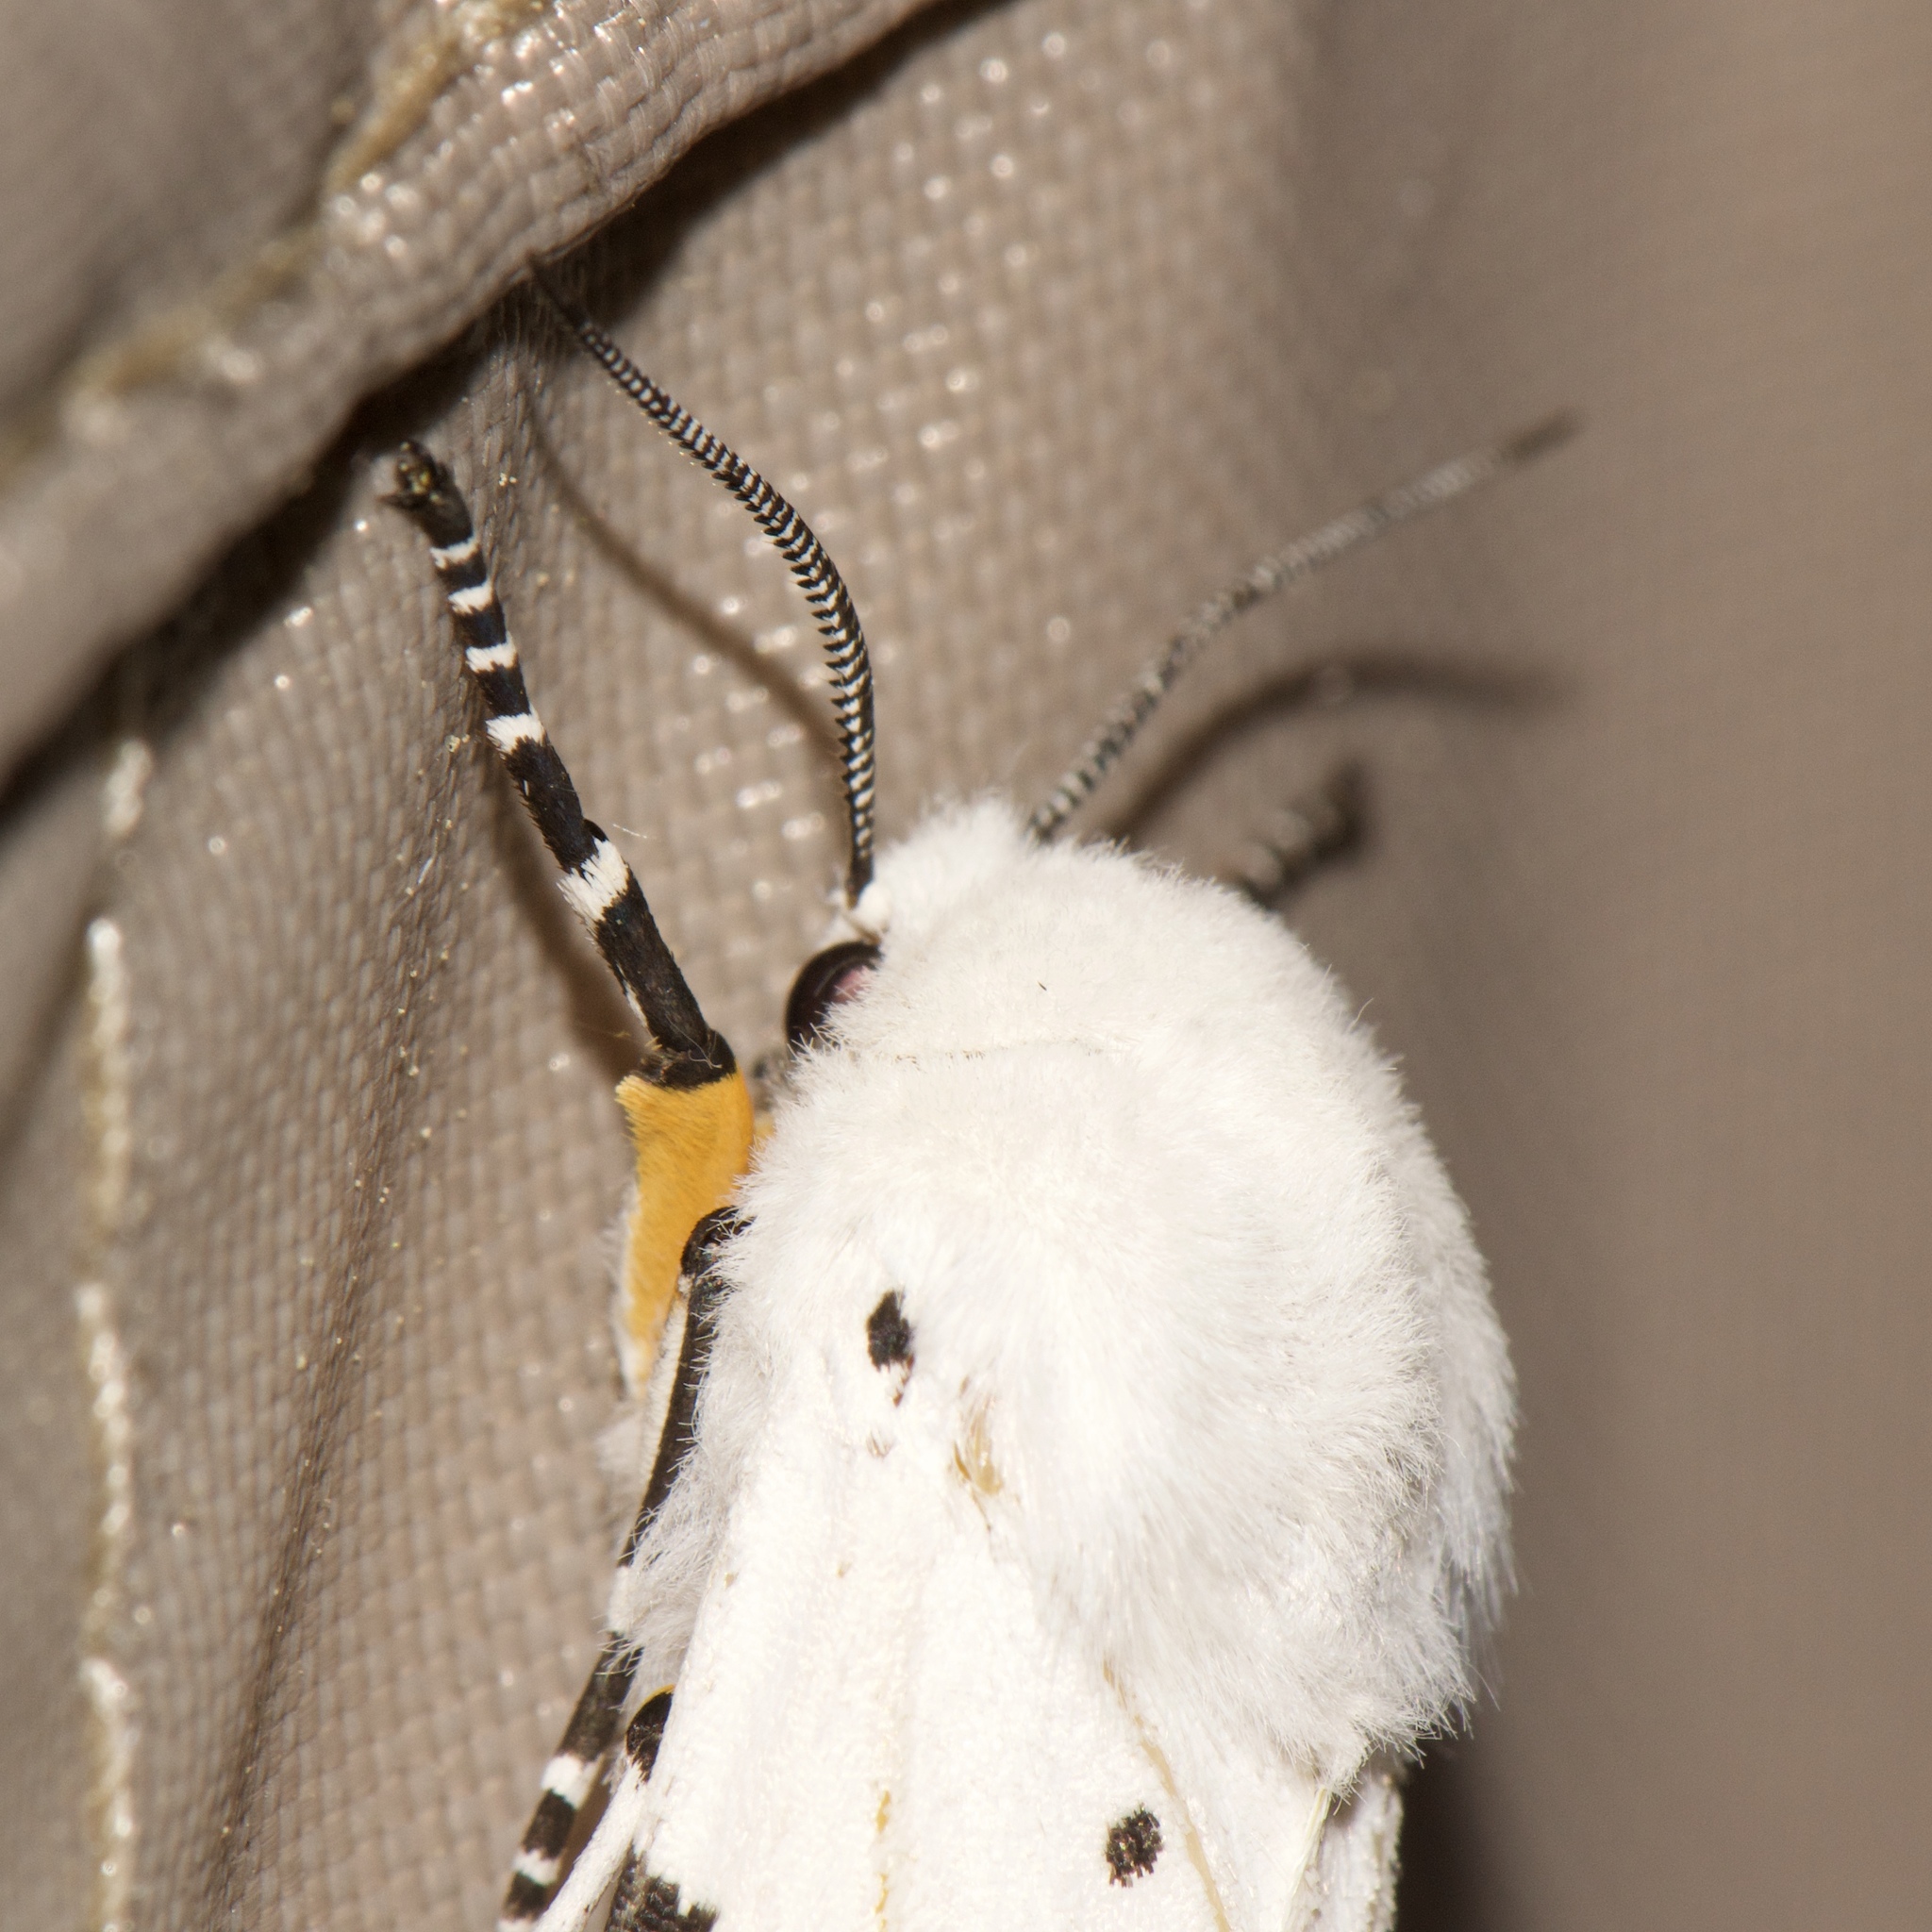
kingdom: Animalia
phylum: Arthropoda
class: Insecta
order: Lepidoptera
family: Erebidae
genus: Estigmene
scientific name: Estigmene acrea
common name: Salt marsh moth
